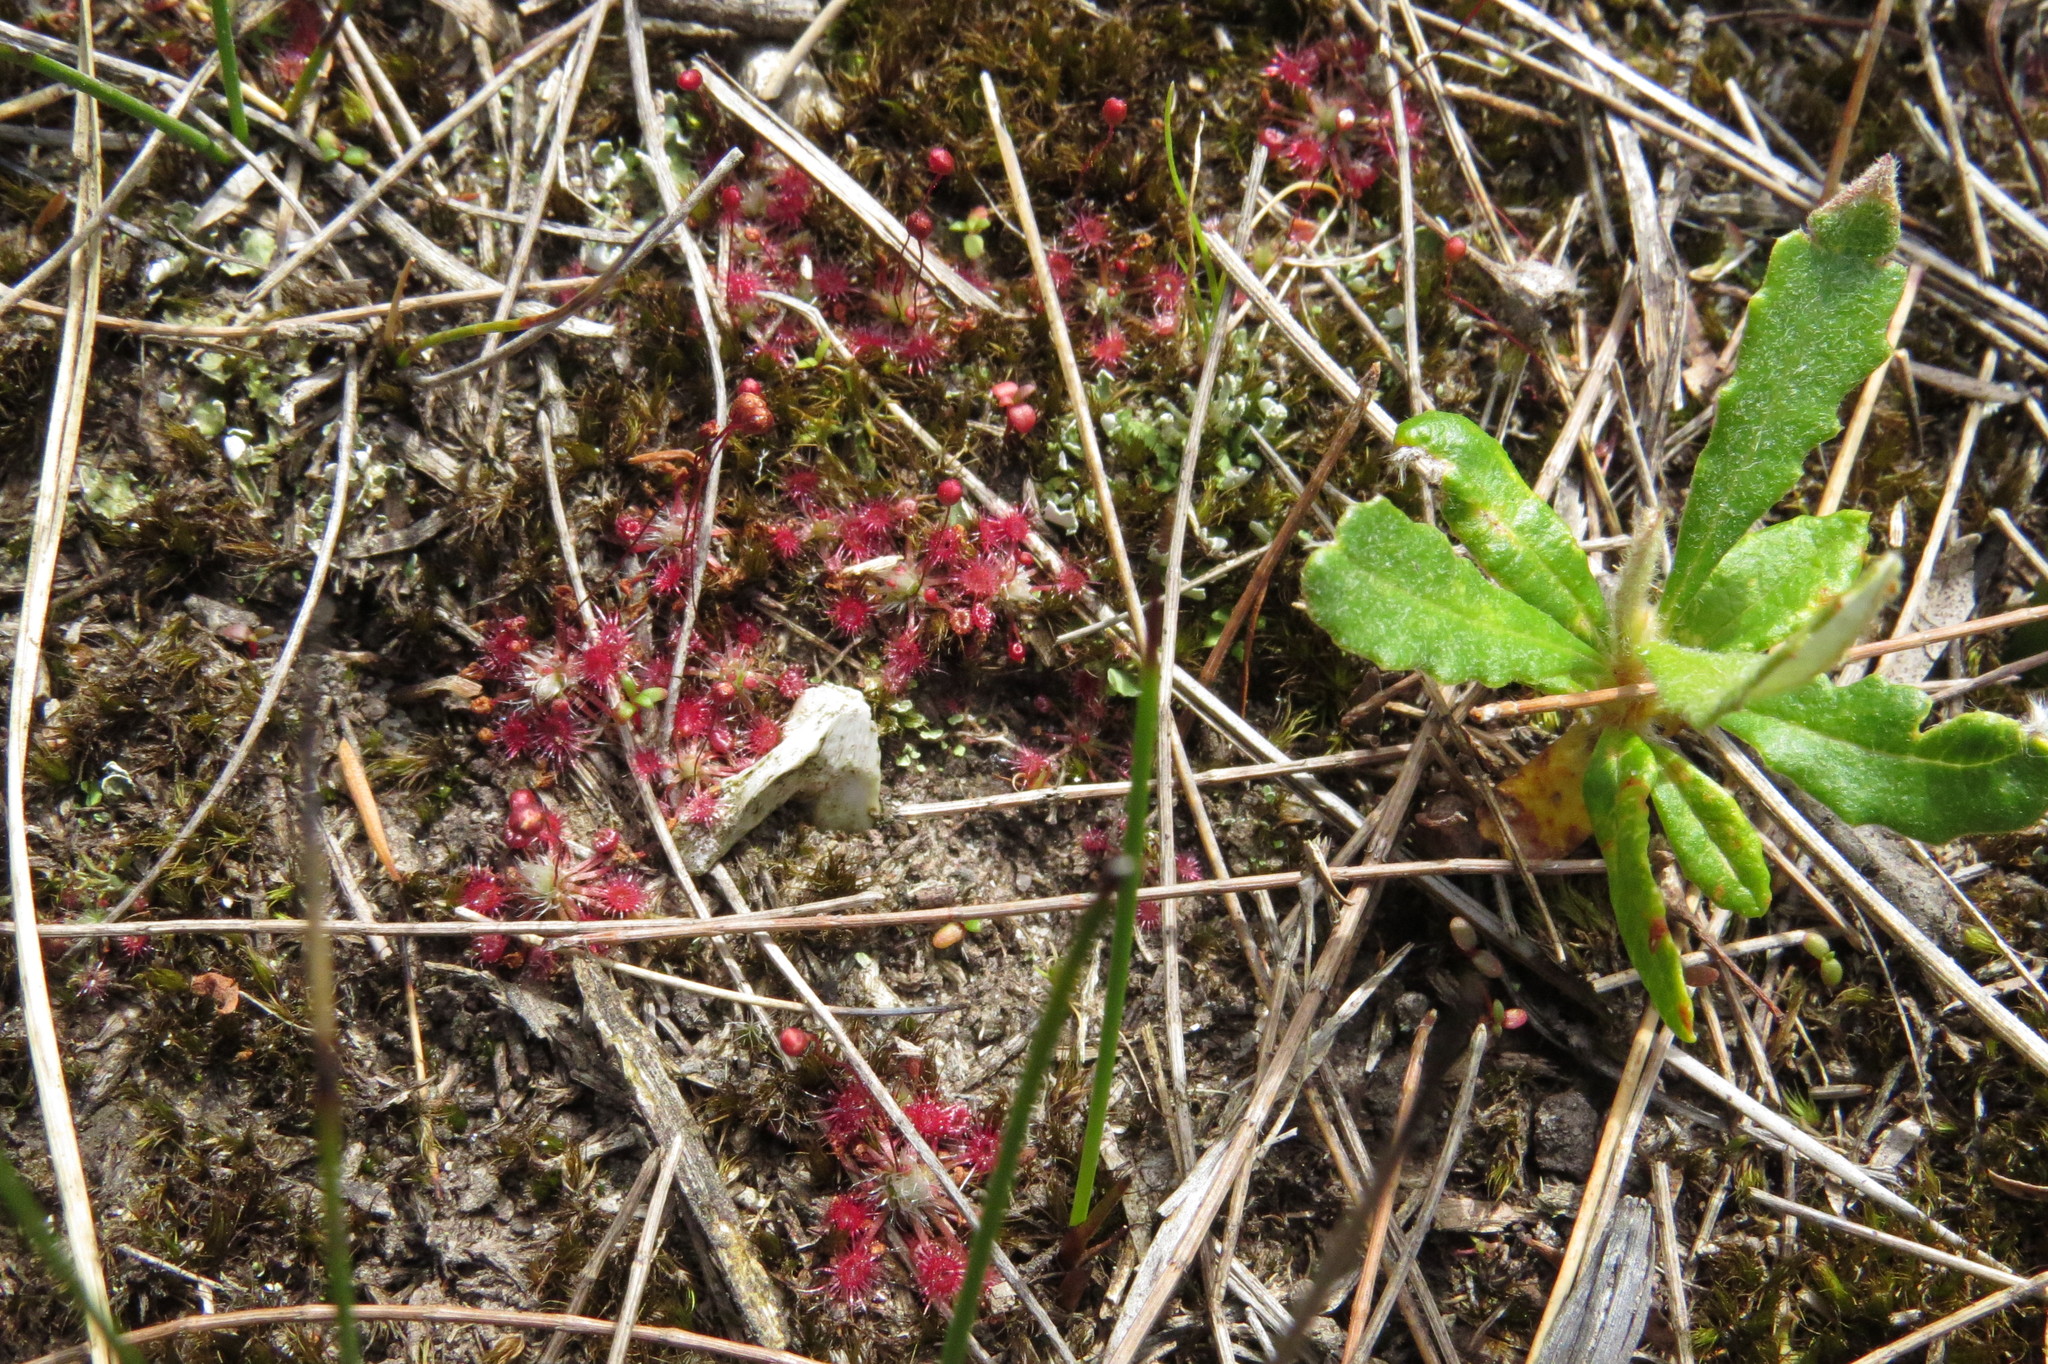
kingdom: Plantae
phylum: Tracheophyta
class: Magnoliopsida
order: Caryophyllales
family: Droseraceae
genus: Drosera
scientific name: Drosera pygmaea
